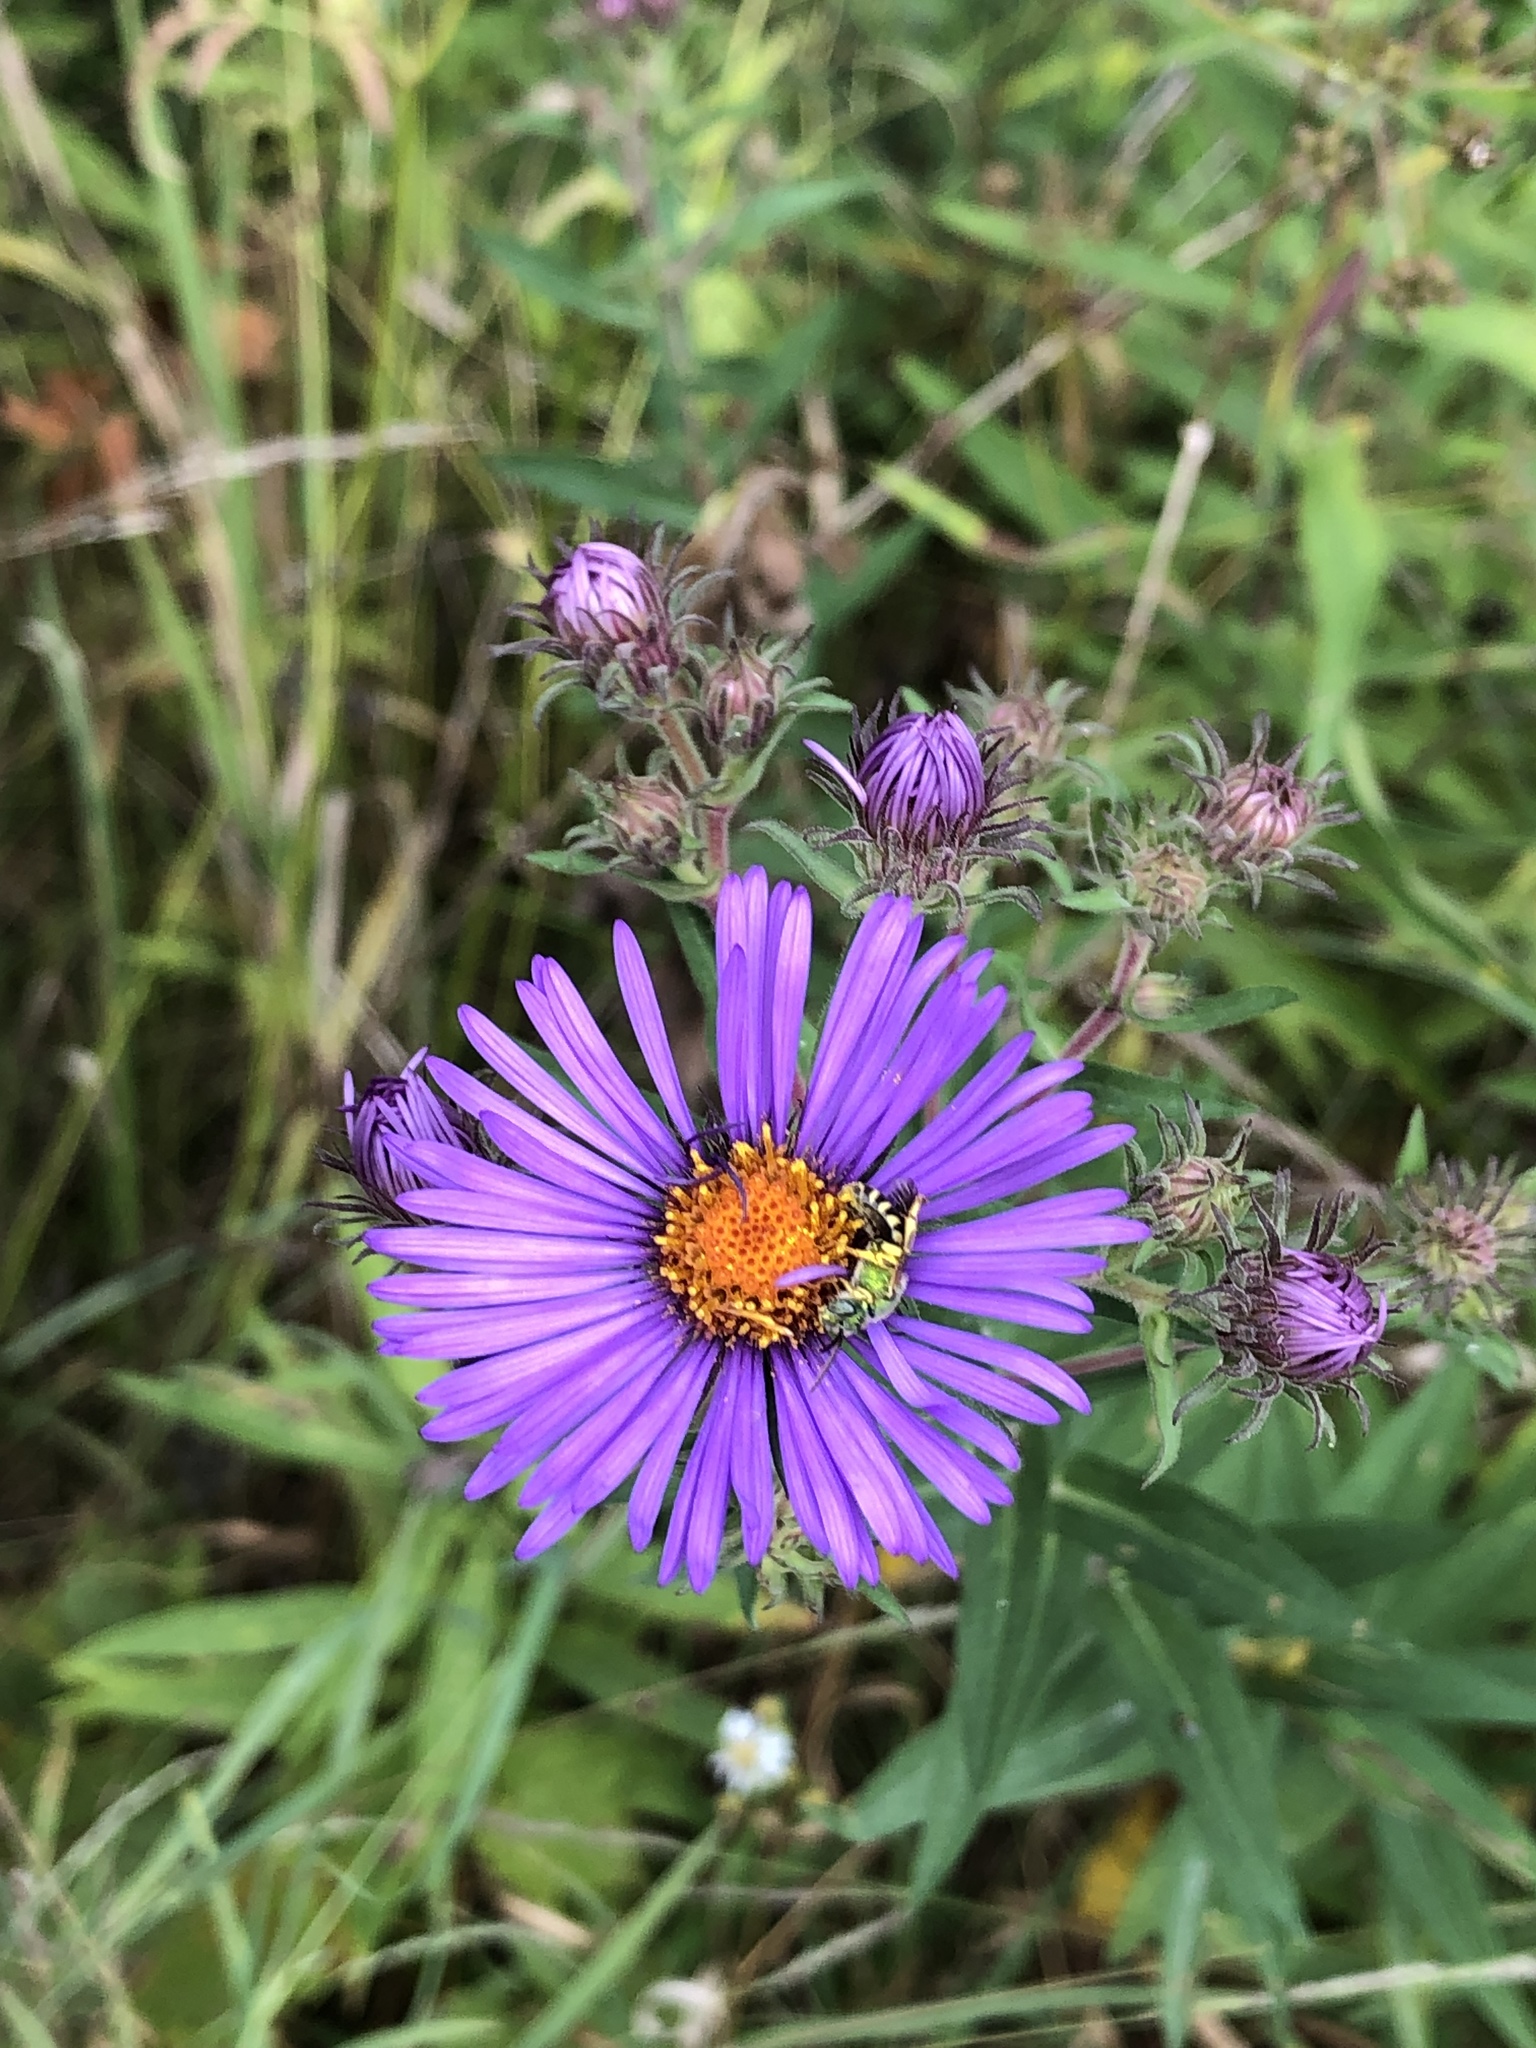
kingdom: Plantae
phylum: Tracheophyta
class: Magnoliopsida
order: Asterales
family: Asteraceae
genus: Symphyotrichum
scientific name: Symphyotrichum novae-angliae
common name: Michaelmas daisy
